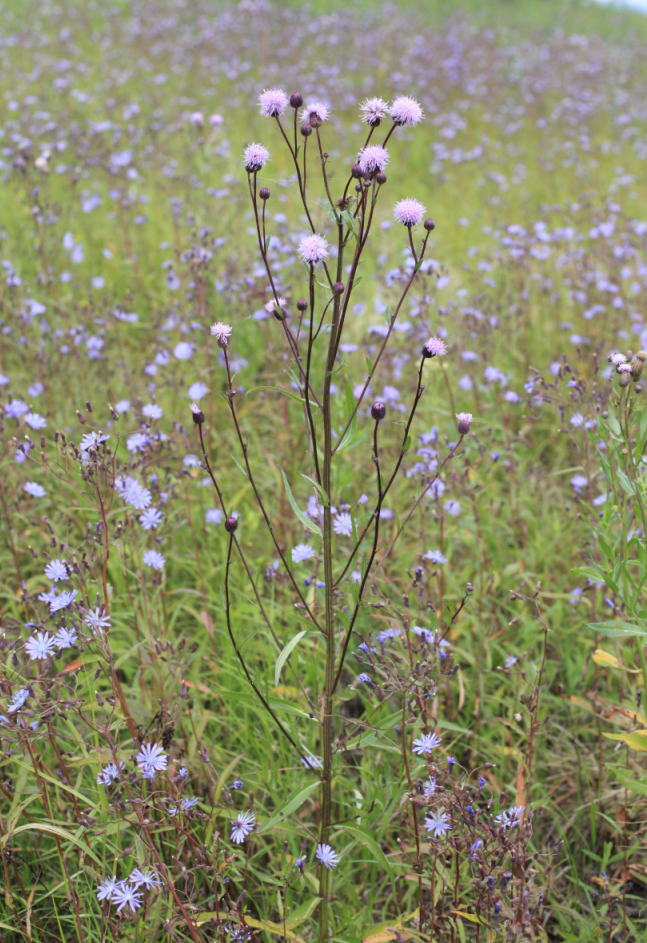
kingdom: Plantae
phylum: Tracheophyta
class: Magnoliopsida
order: Asterales
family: Asteraceae
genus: Cirsium
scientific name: Cirsium arvense
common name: Creeping thistle
